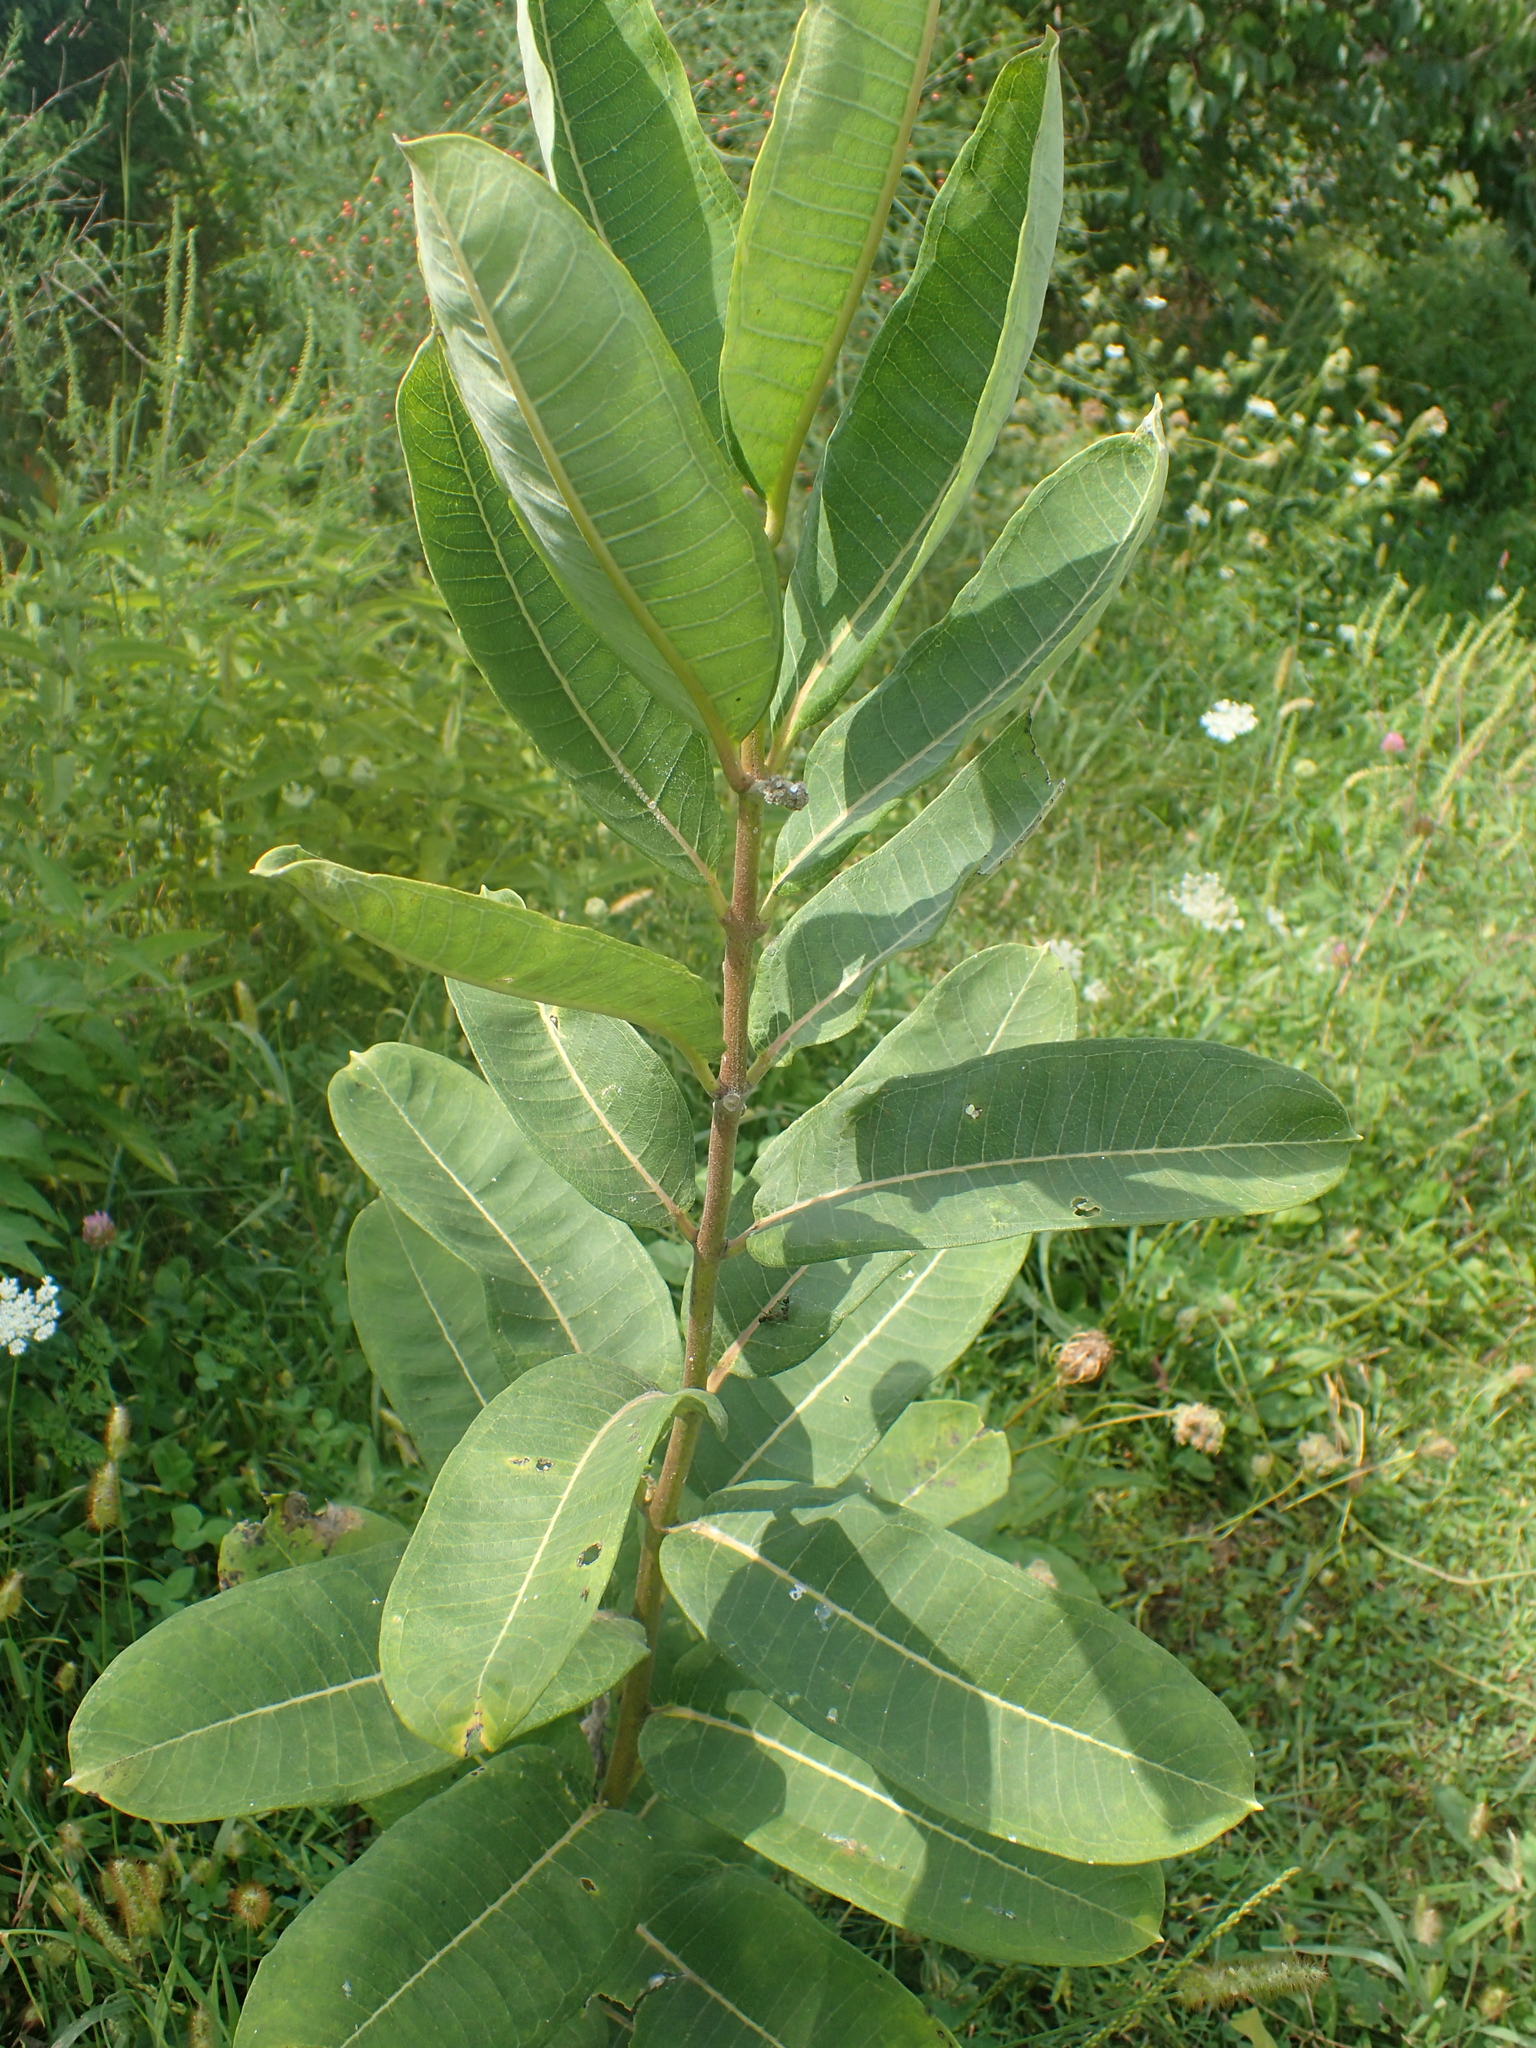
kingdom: Plantae
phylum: Tracheophyta
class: Magnoliopsida
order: Gentianales
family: Apocynaceae
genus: Asclepias
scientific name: Asclepias syriaca
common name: Common milkweed
